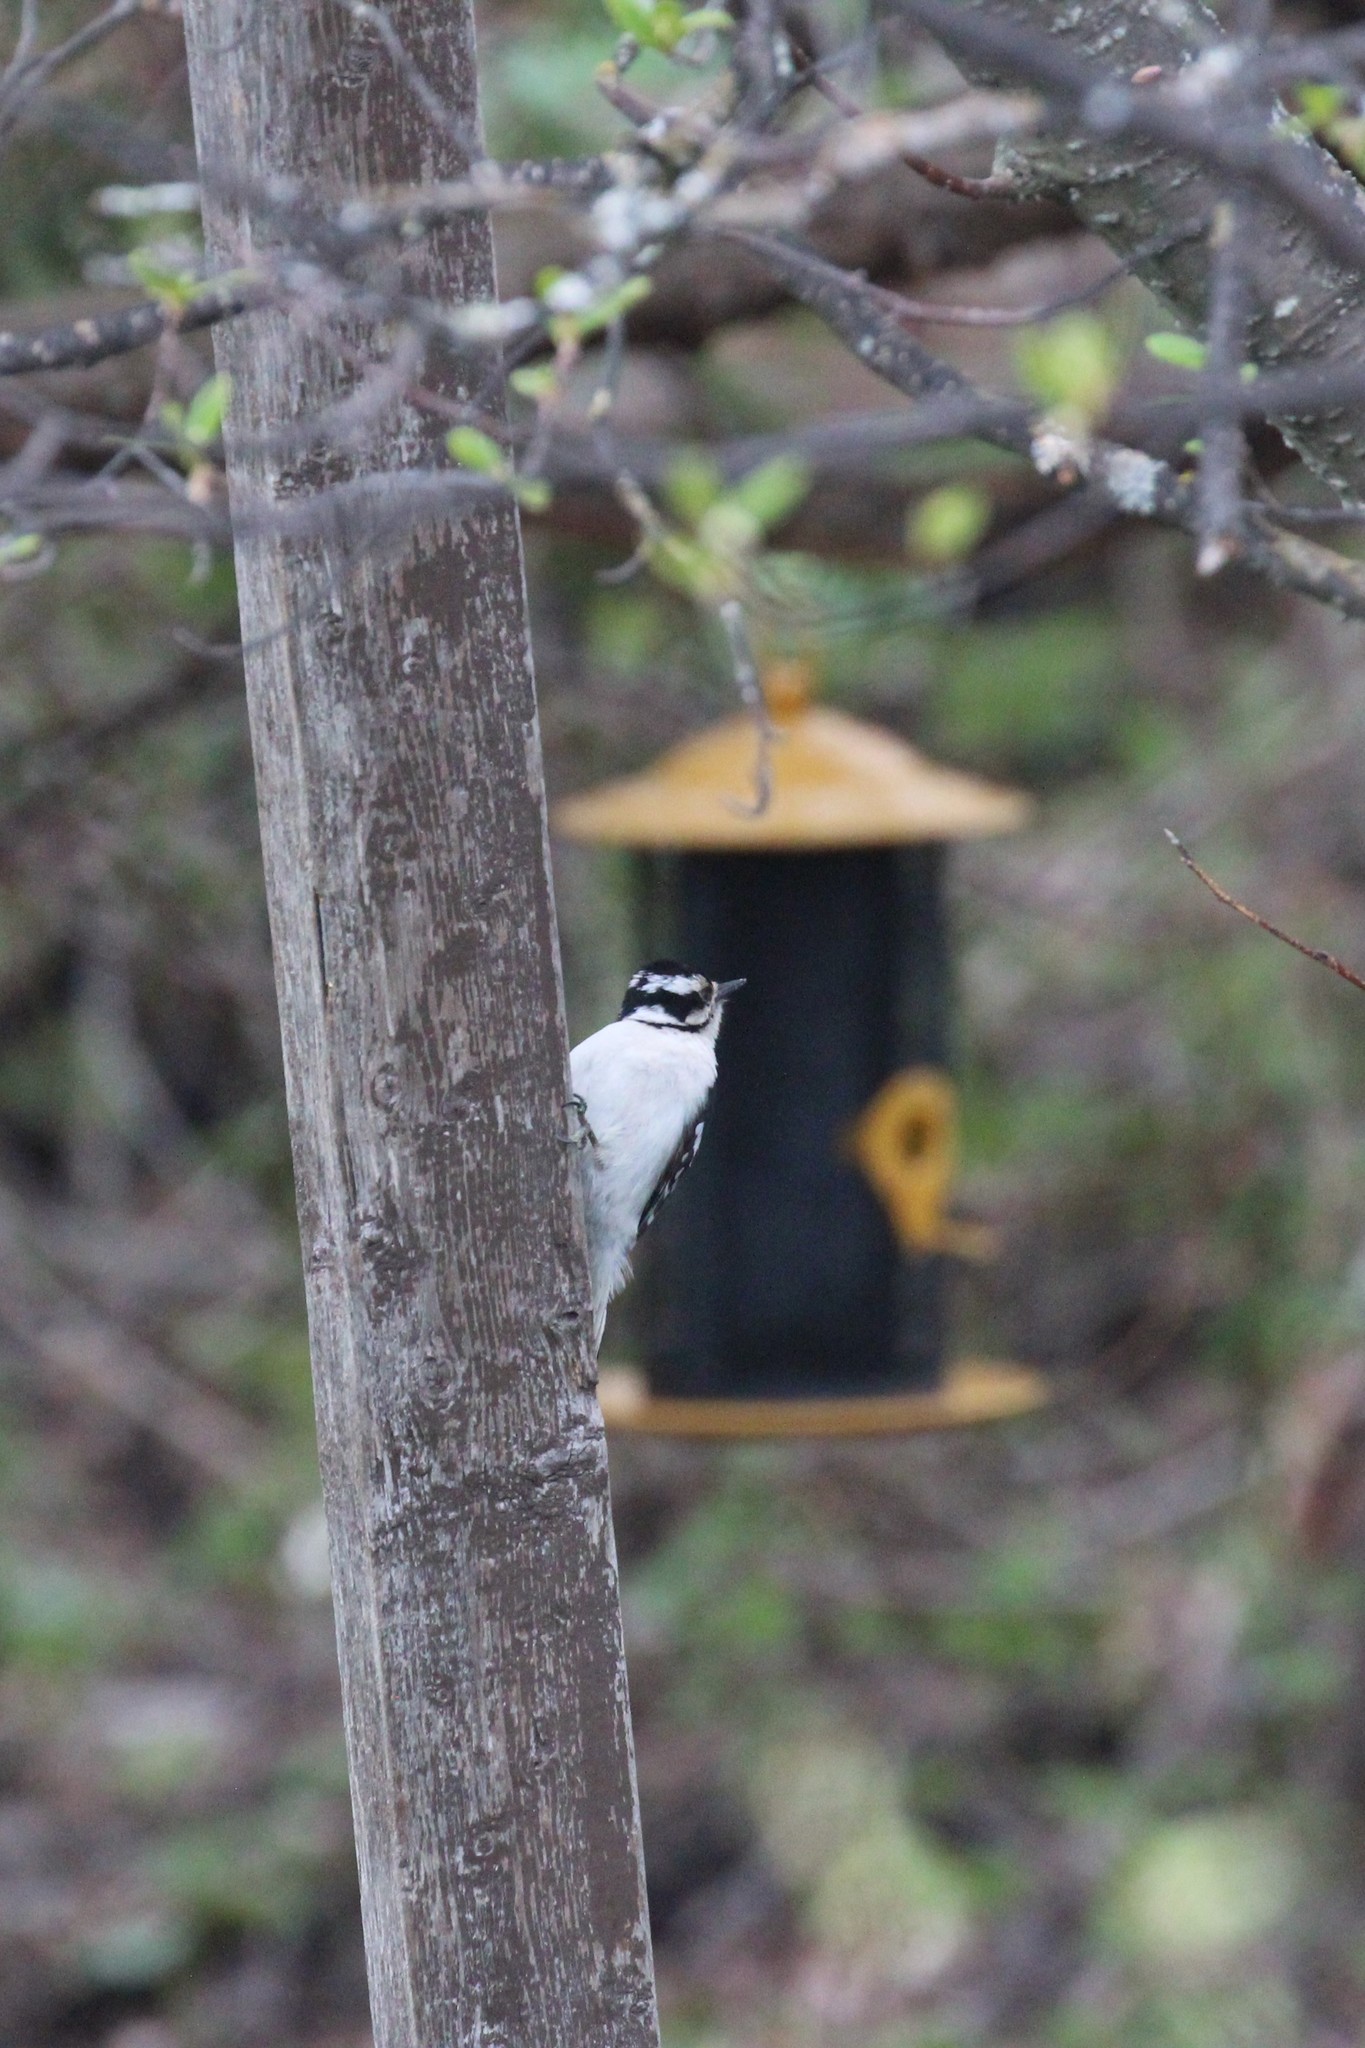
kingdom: Animalia
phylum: Chordata
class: Aves
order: Piciformes
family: Picidae
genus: Dryobates
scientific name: Dryobates pubescens
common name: Downy woodpecker
